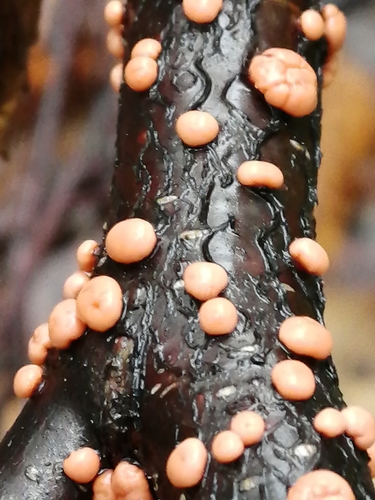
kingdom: Fungi
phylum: Ascomycota
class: Sordariomycetes
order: Hypocreales
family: Nectriaceae
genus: Nectria
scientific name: Nectria cinnabarina
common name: Coral spot
